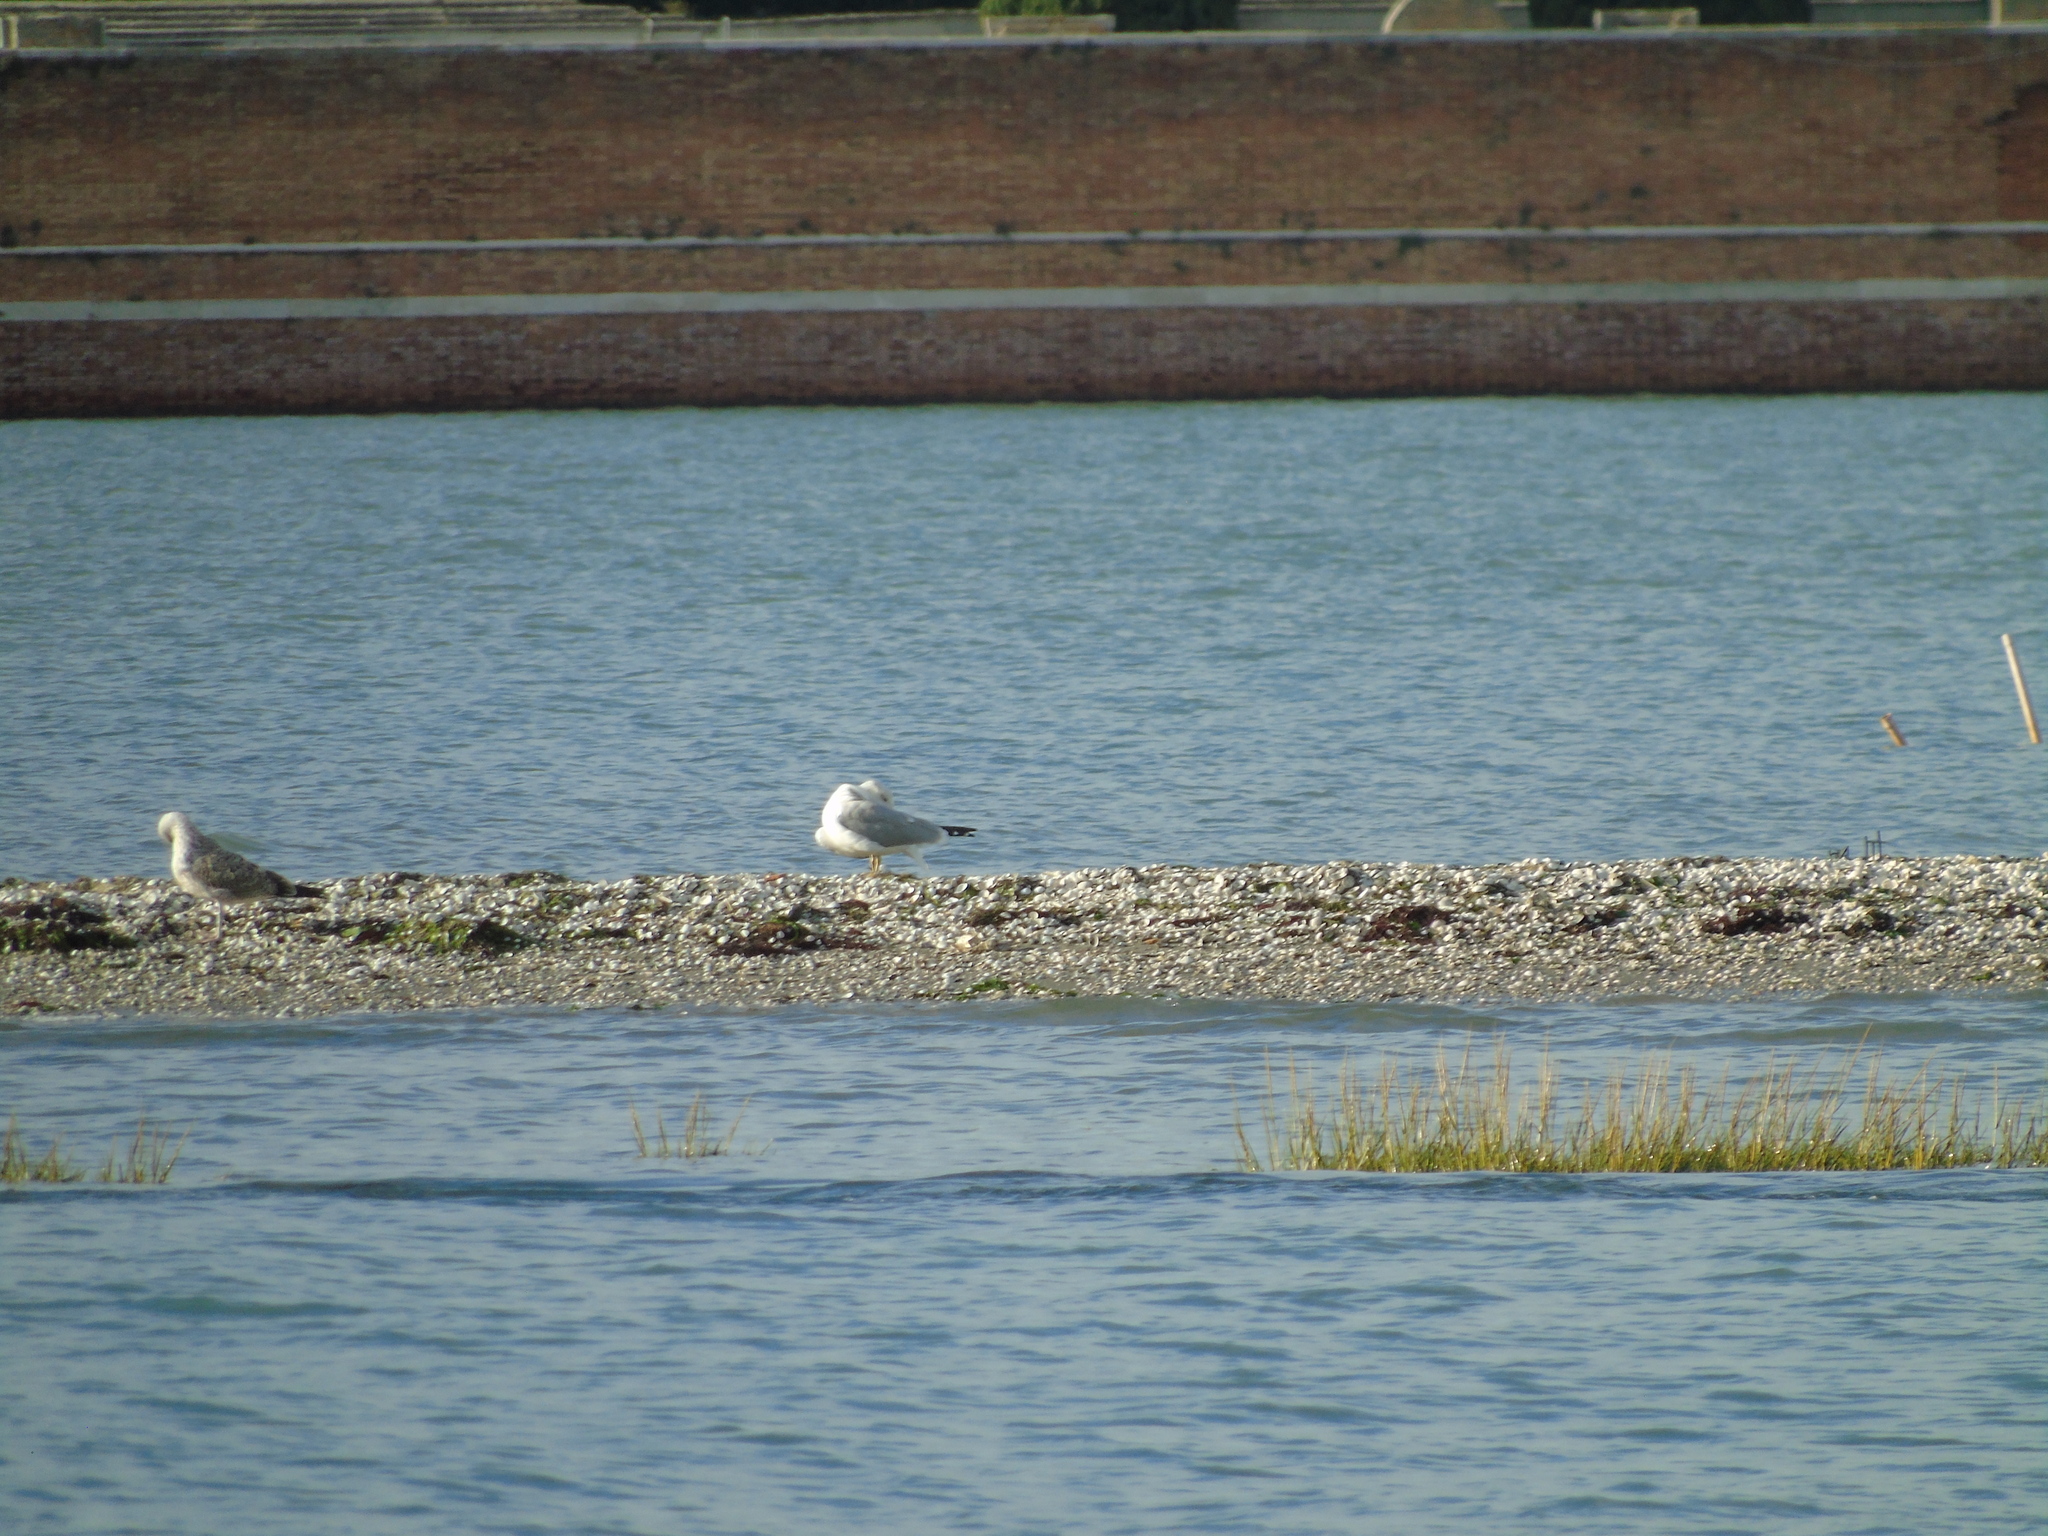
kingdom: Animalia
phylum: Chordata
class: Aves
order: Charadriiformes
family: Laridae
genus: Larus
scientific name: Larus michahellis
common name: Yellow-legged gull
